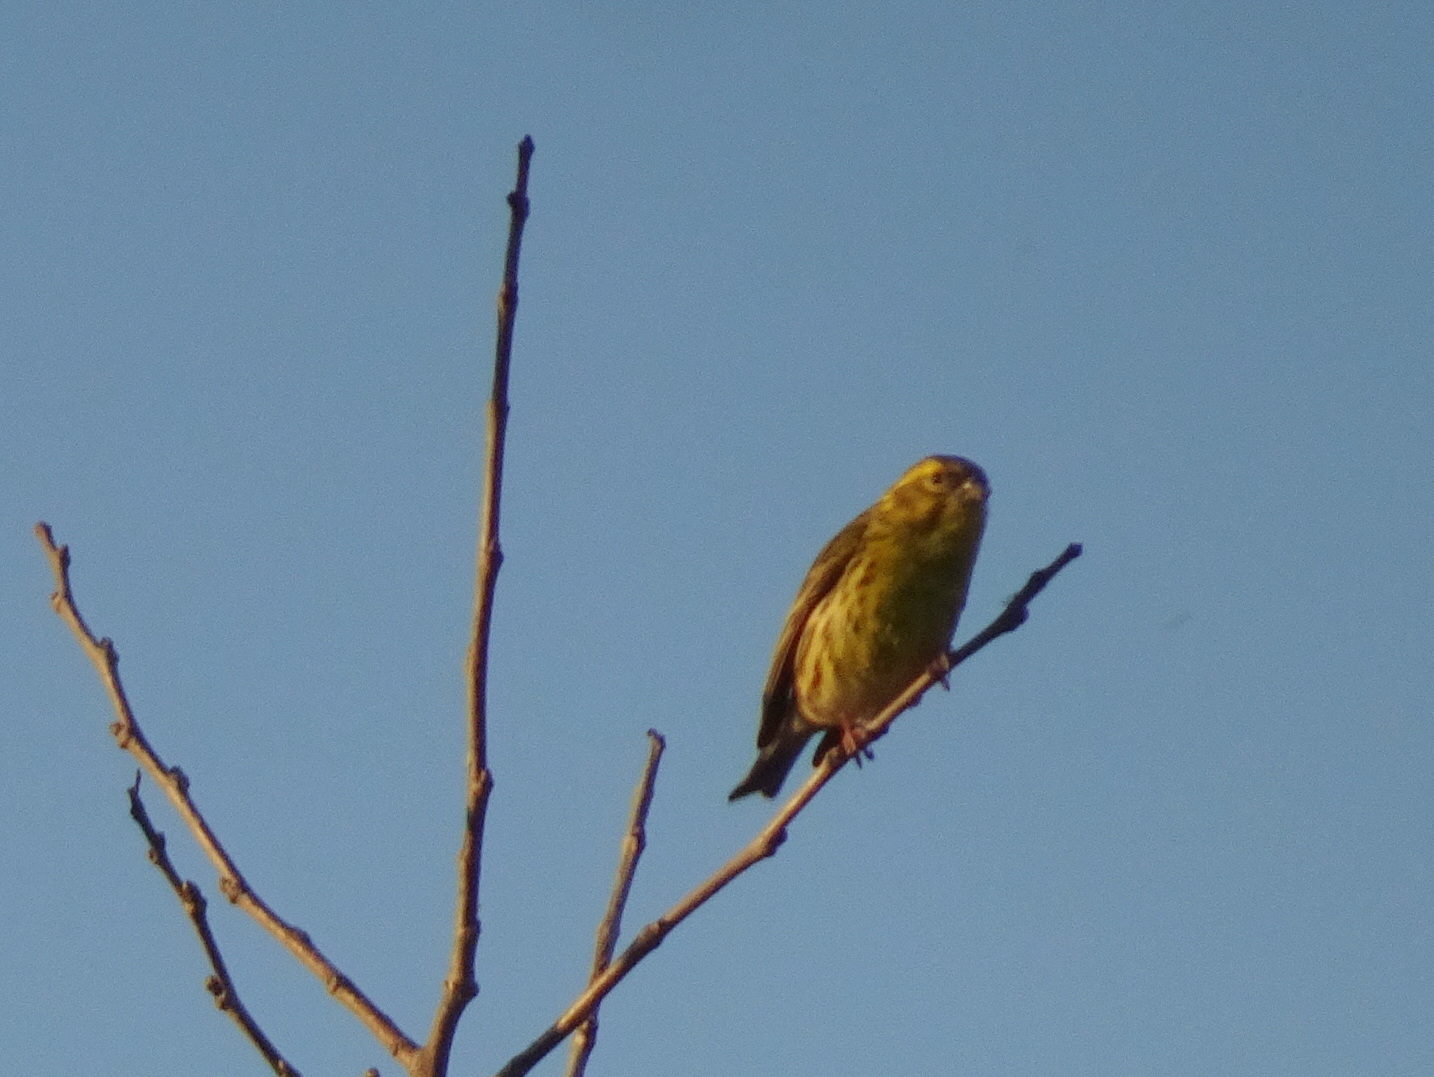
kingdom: Animalia
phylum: Chordata
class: Aves
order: Passeriformes
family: Fringillidae
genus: Serinus
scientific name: Serinus serinus
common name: European serin
